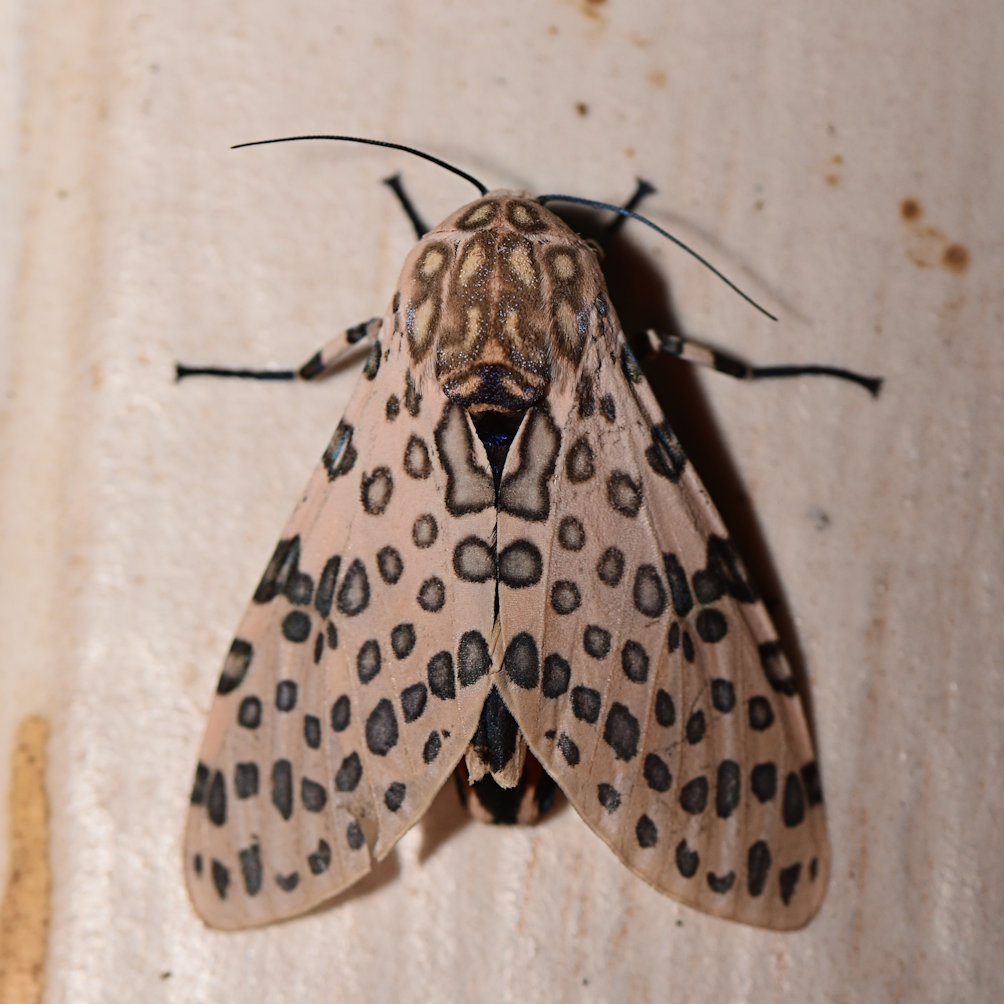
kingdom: Animalia
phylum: Arthropoda
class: Insecta
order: Lepidoptera
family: Erebidae
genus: Hypercompe
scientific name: Hypercompe nigriplaga
